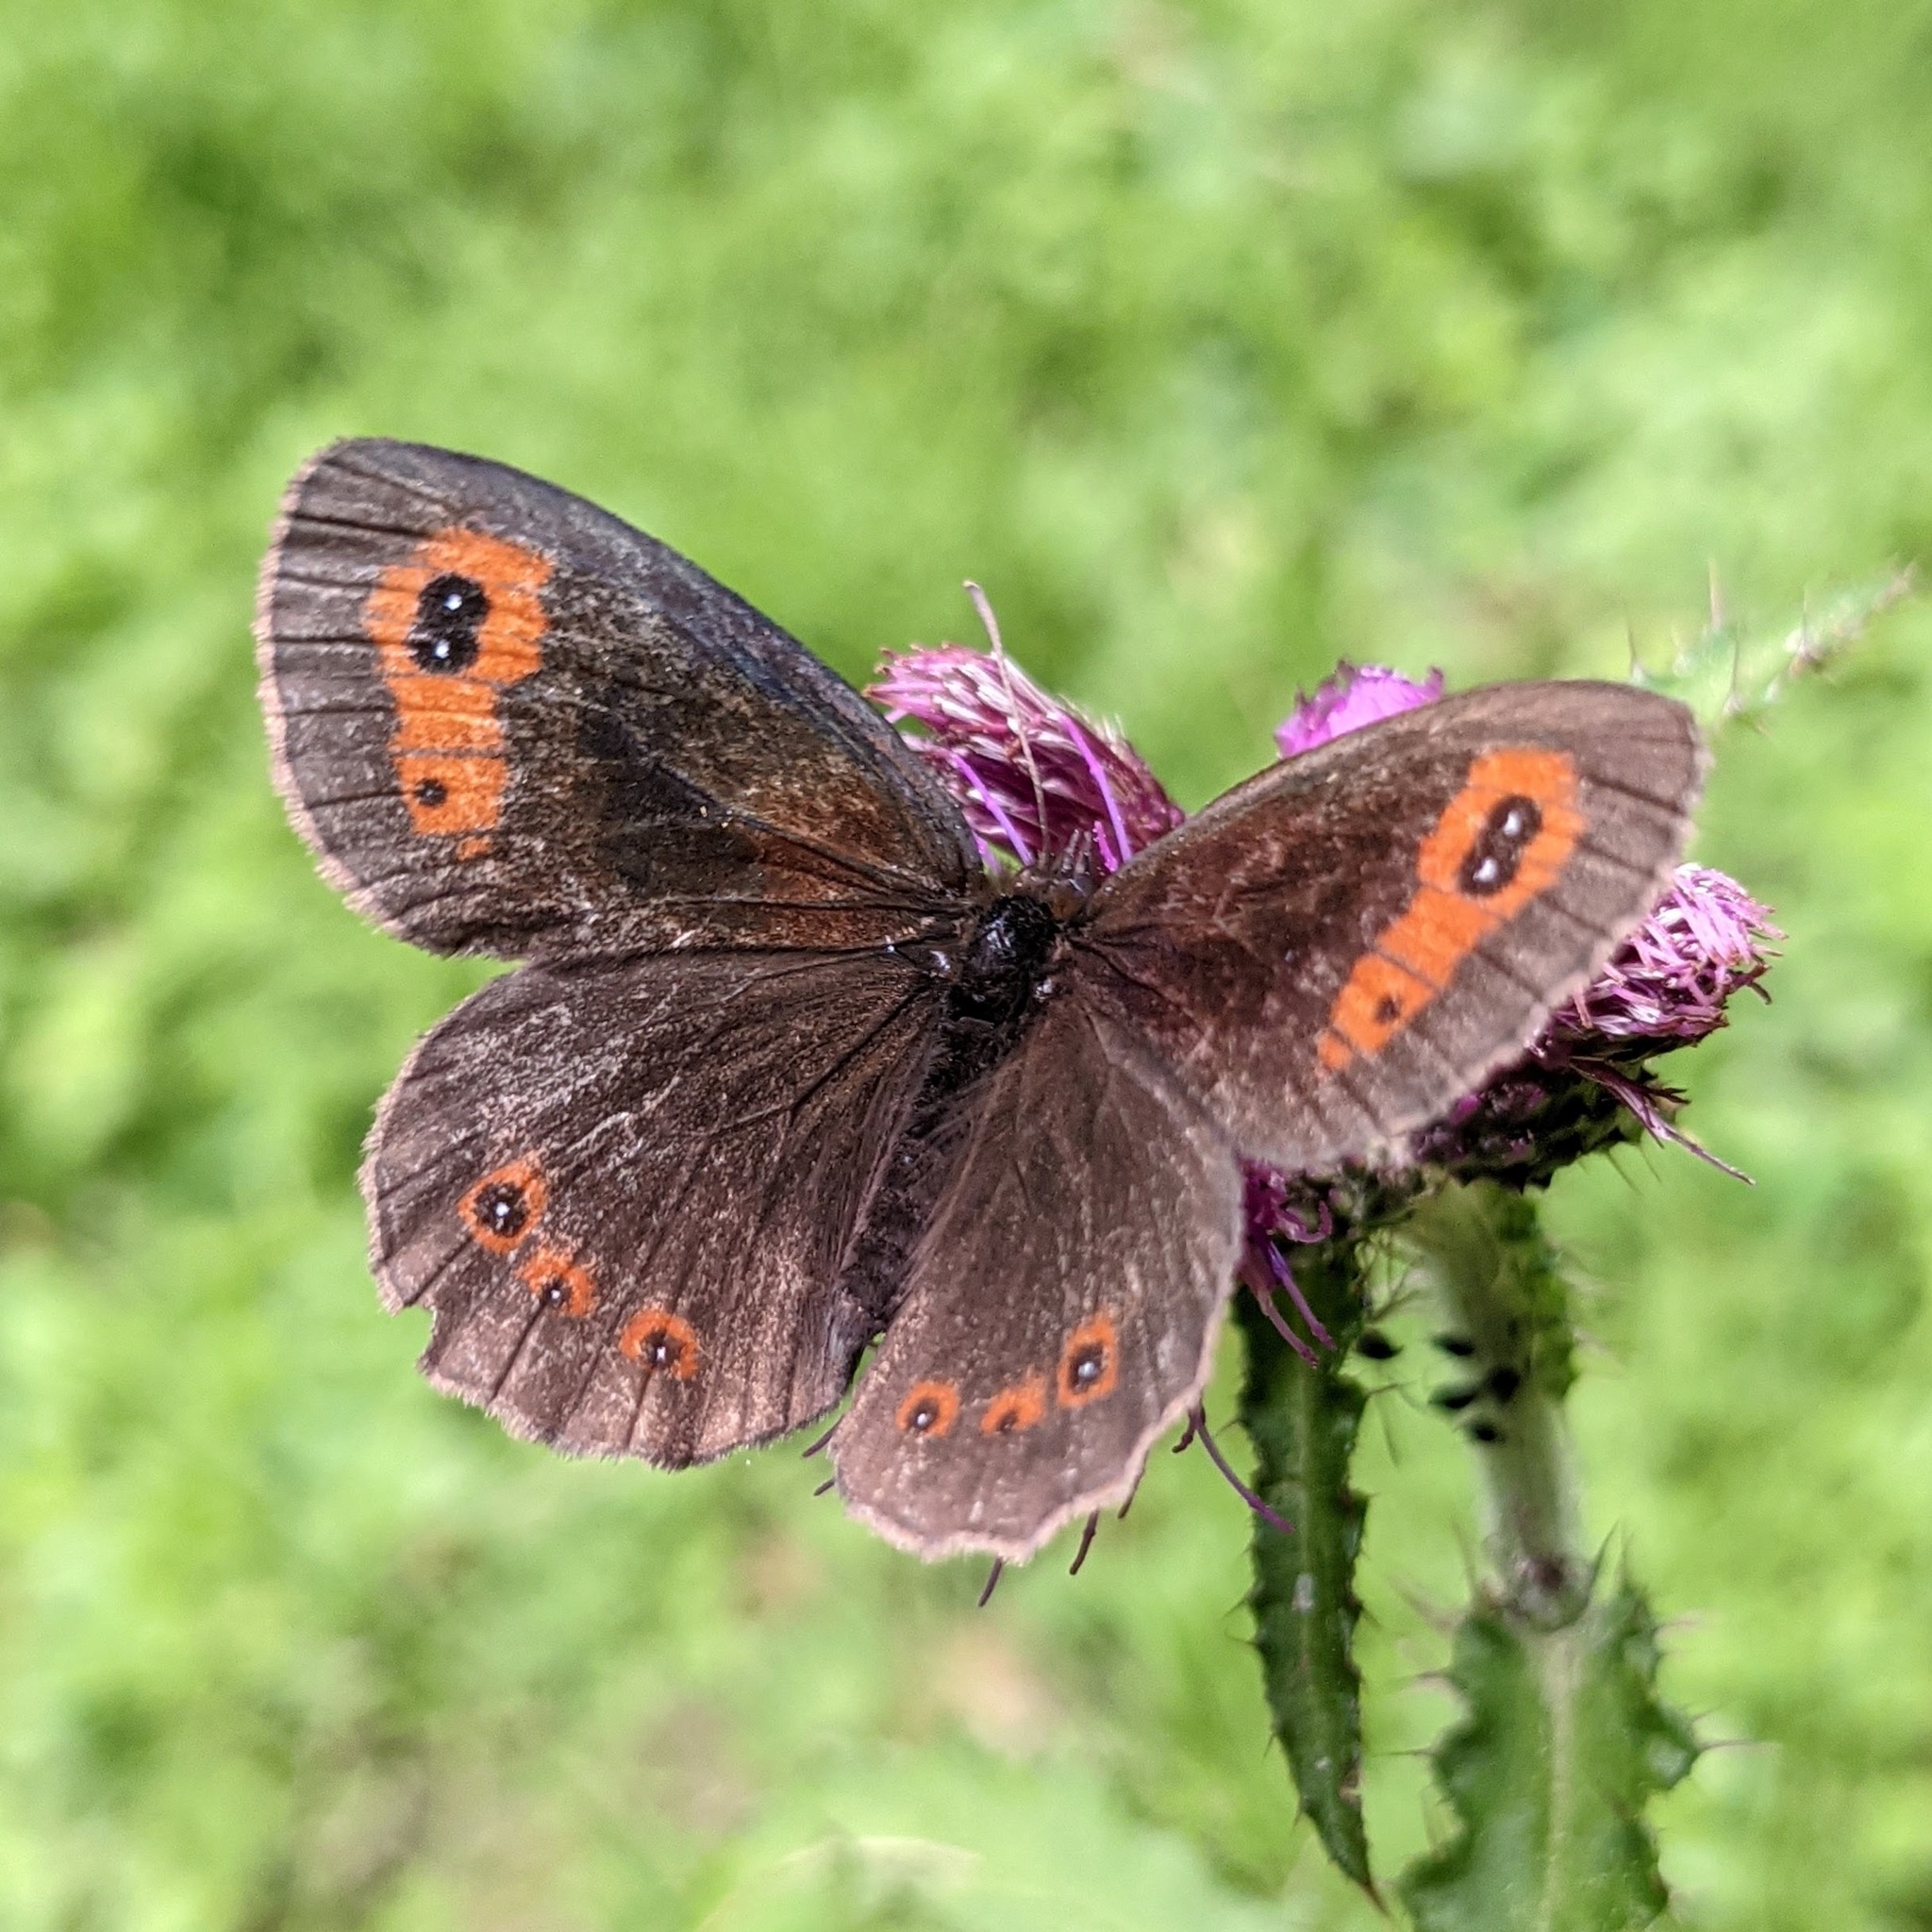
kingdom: Animalia
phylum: Arthropoda
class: Insecta
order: Lepidoptera
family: Nymphalidae
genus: Erebia
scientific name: Erebia aethiops
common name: Scotch argus
